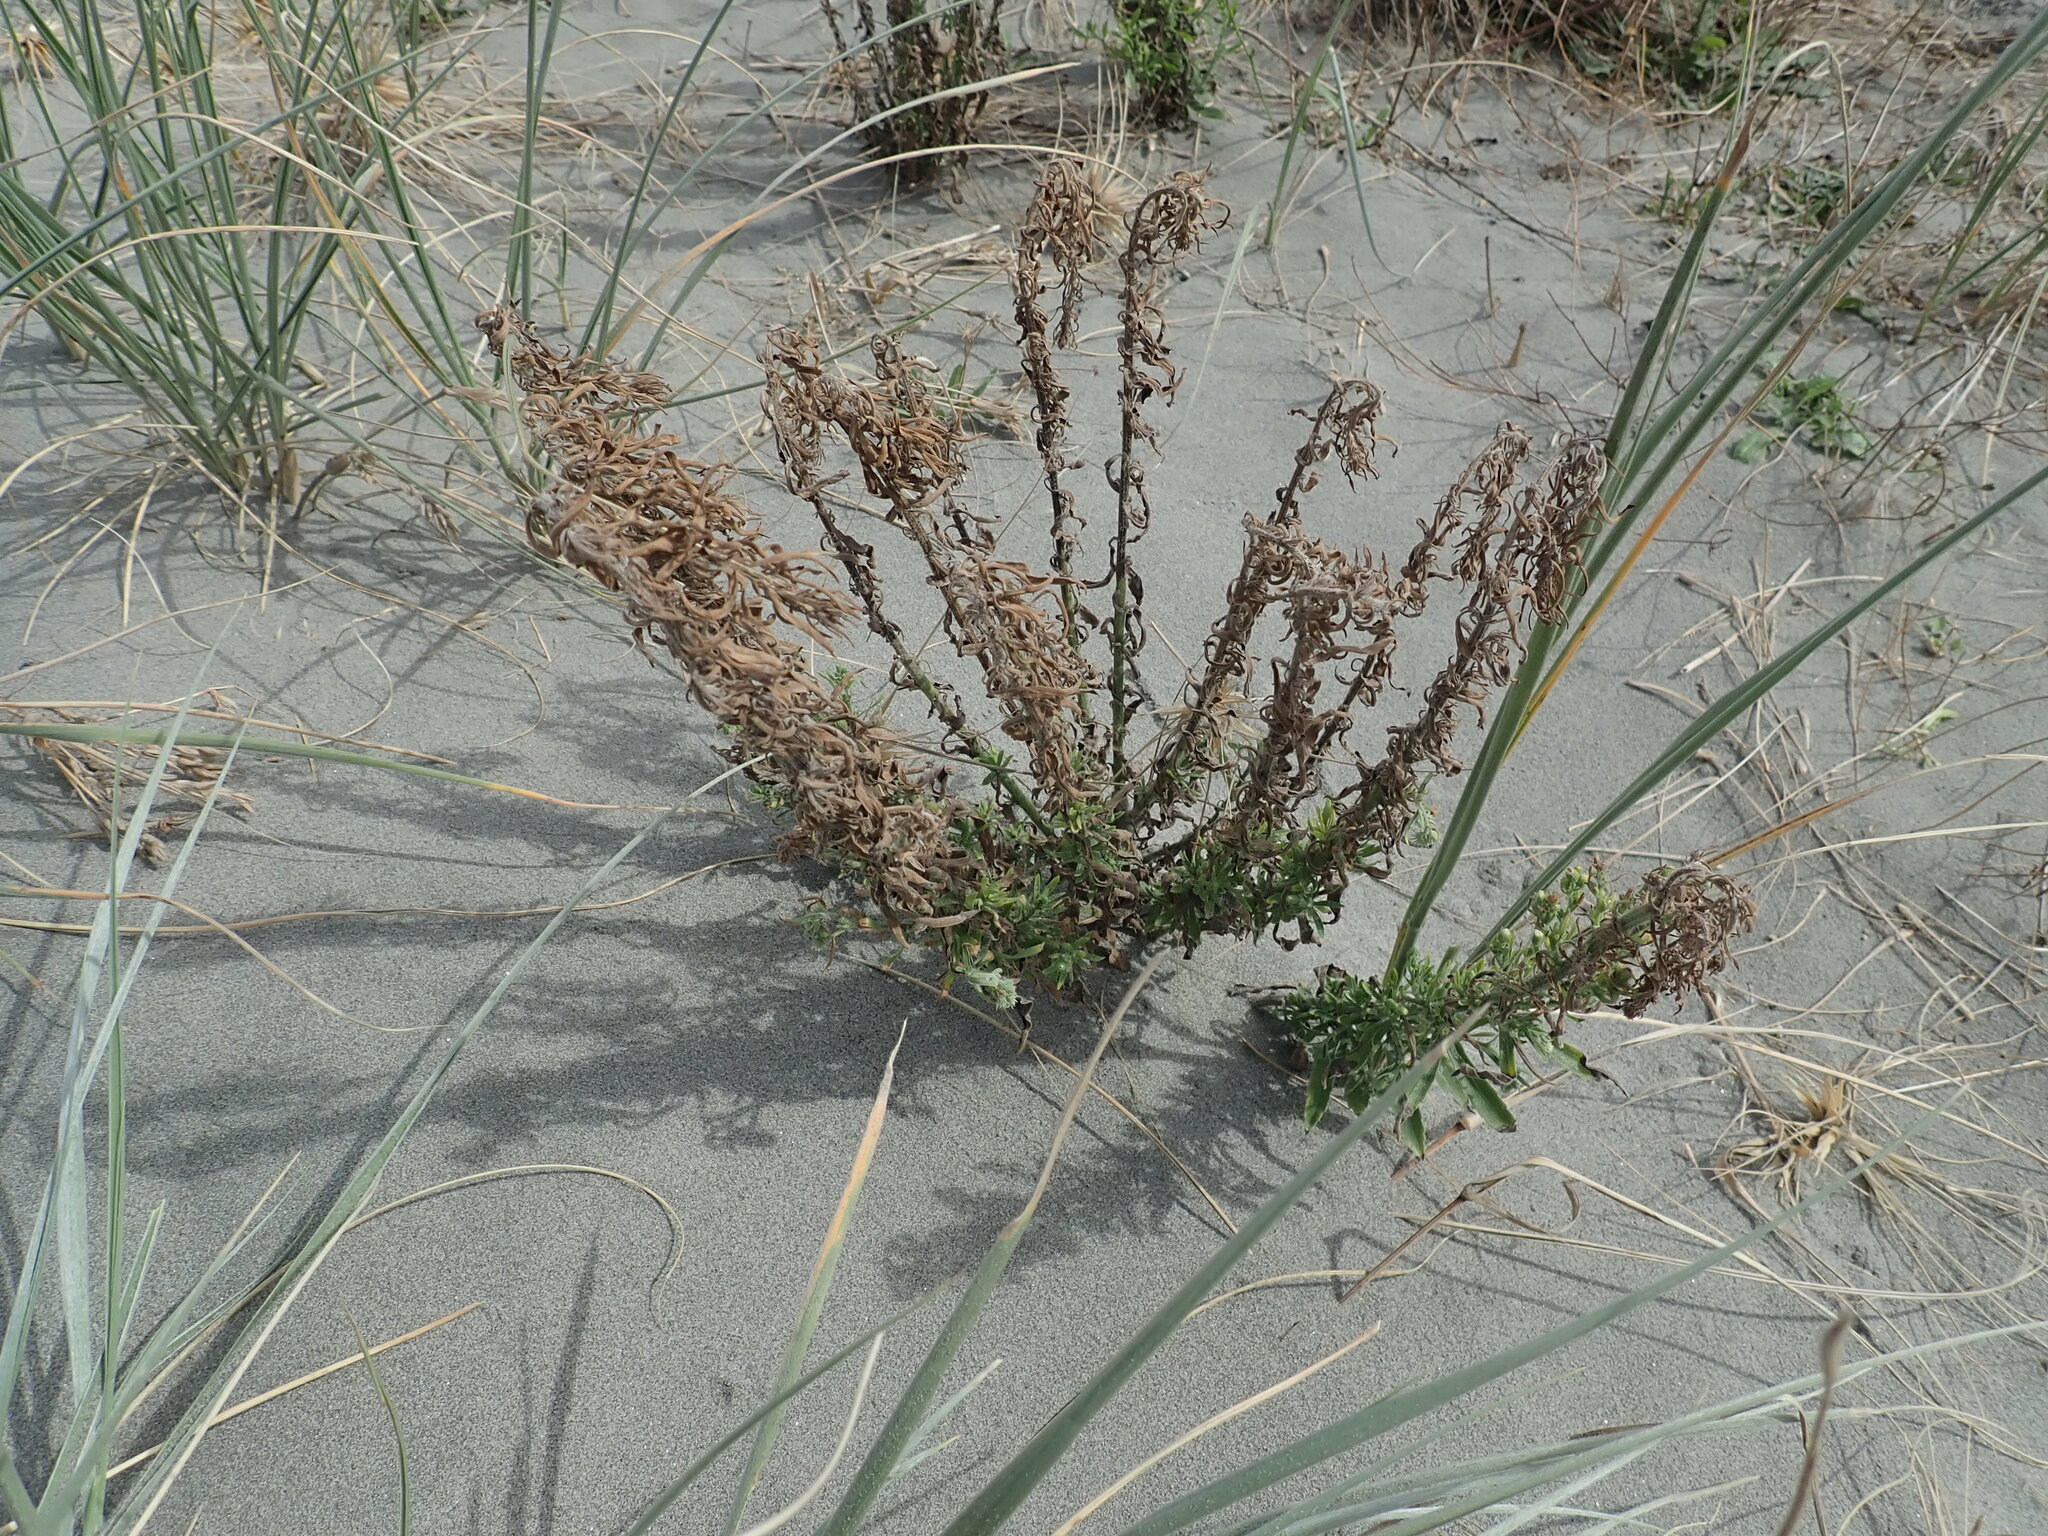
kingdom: Plantae
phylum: Tracheophyta
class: Magnoliopsida
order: Asterales
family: Asteraceae
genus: Erigeron
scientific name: Erigeron sumatrensis
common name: Daisy
